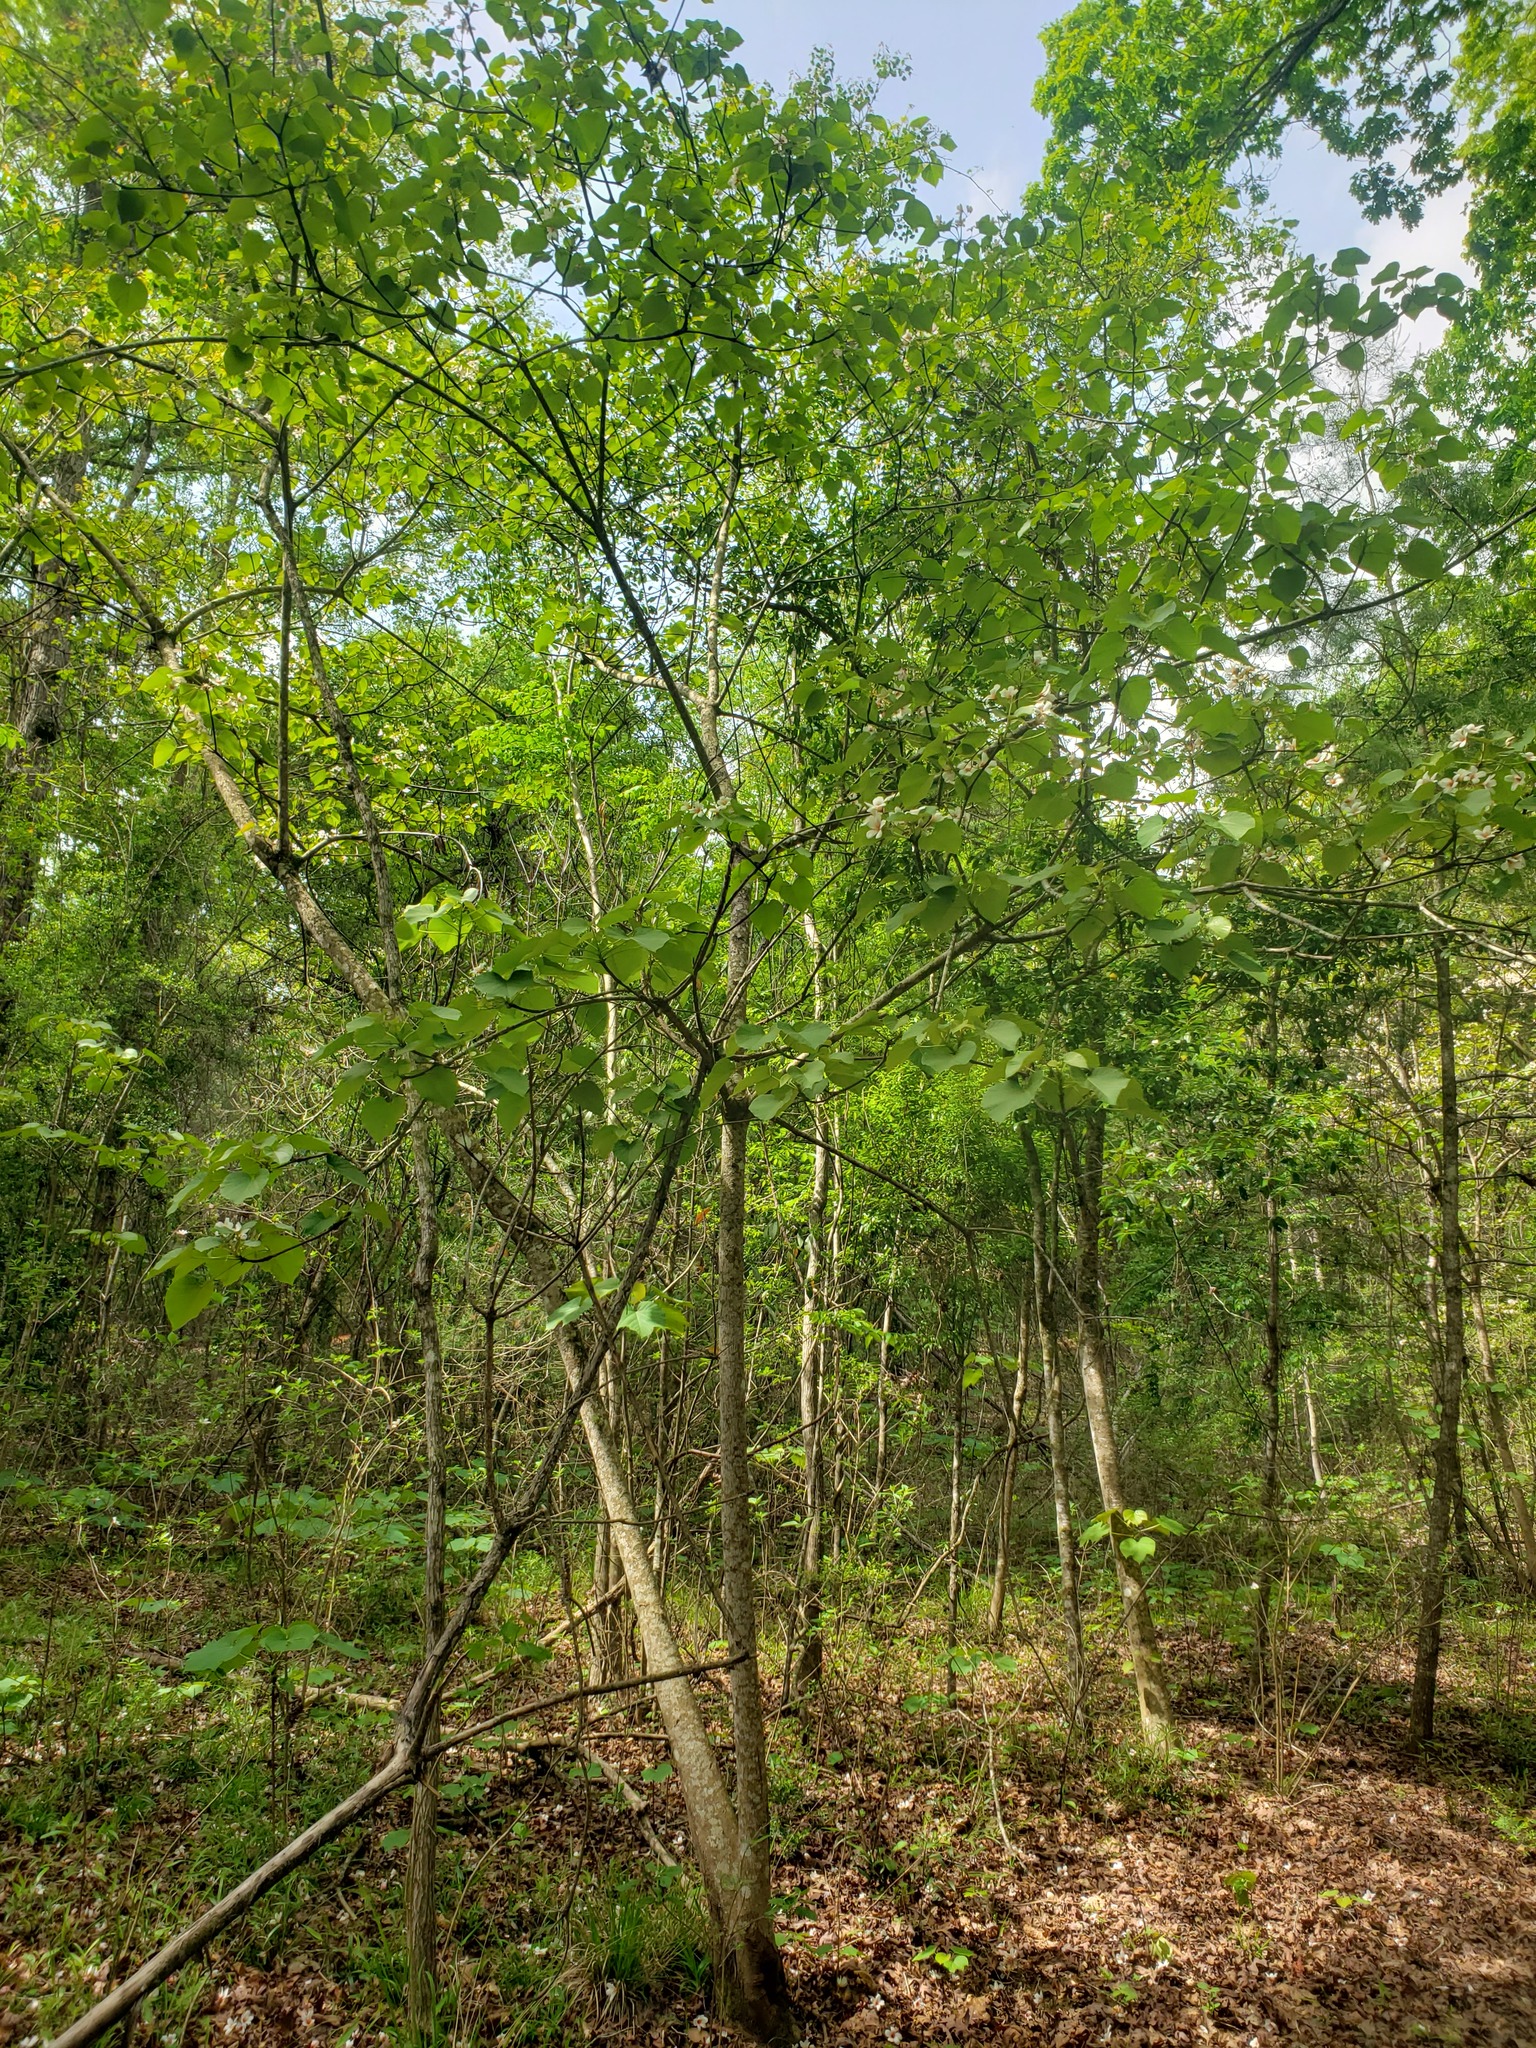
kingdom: Plantae
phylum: Tracheophyta
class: Magnoliopsida
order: Malpighiales
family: Euphorbiaceae
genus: Vernicia
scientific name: Vernicia fordii
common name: Tungoil tree
